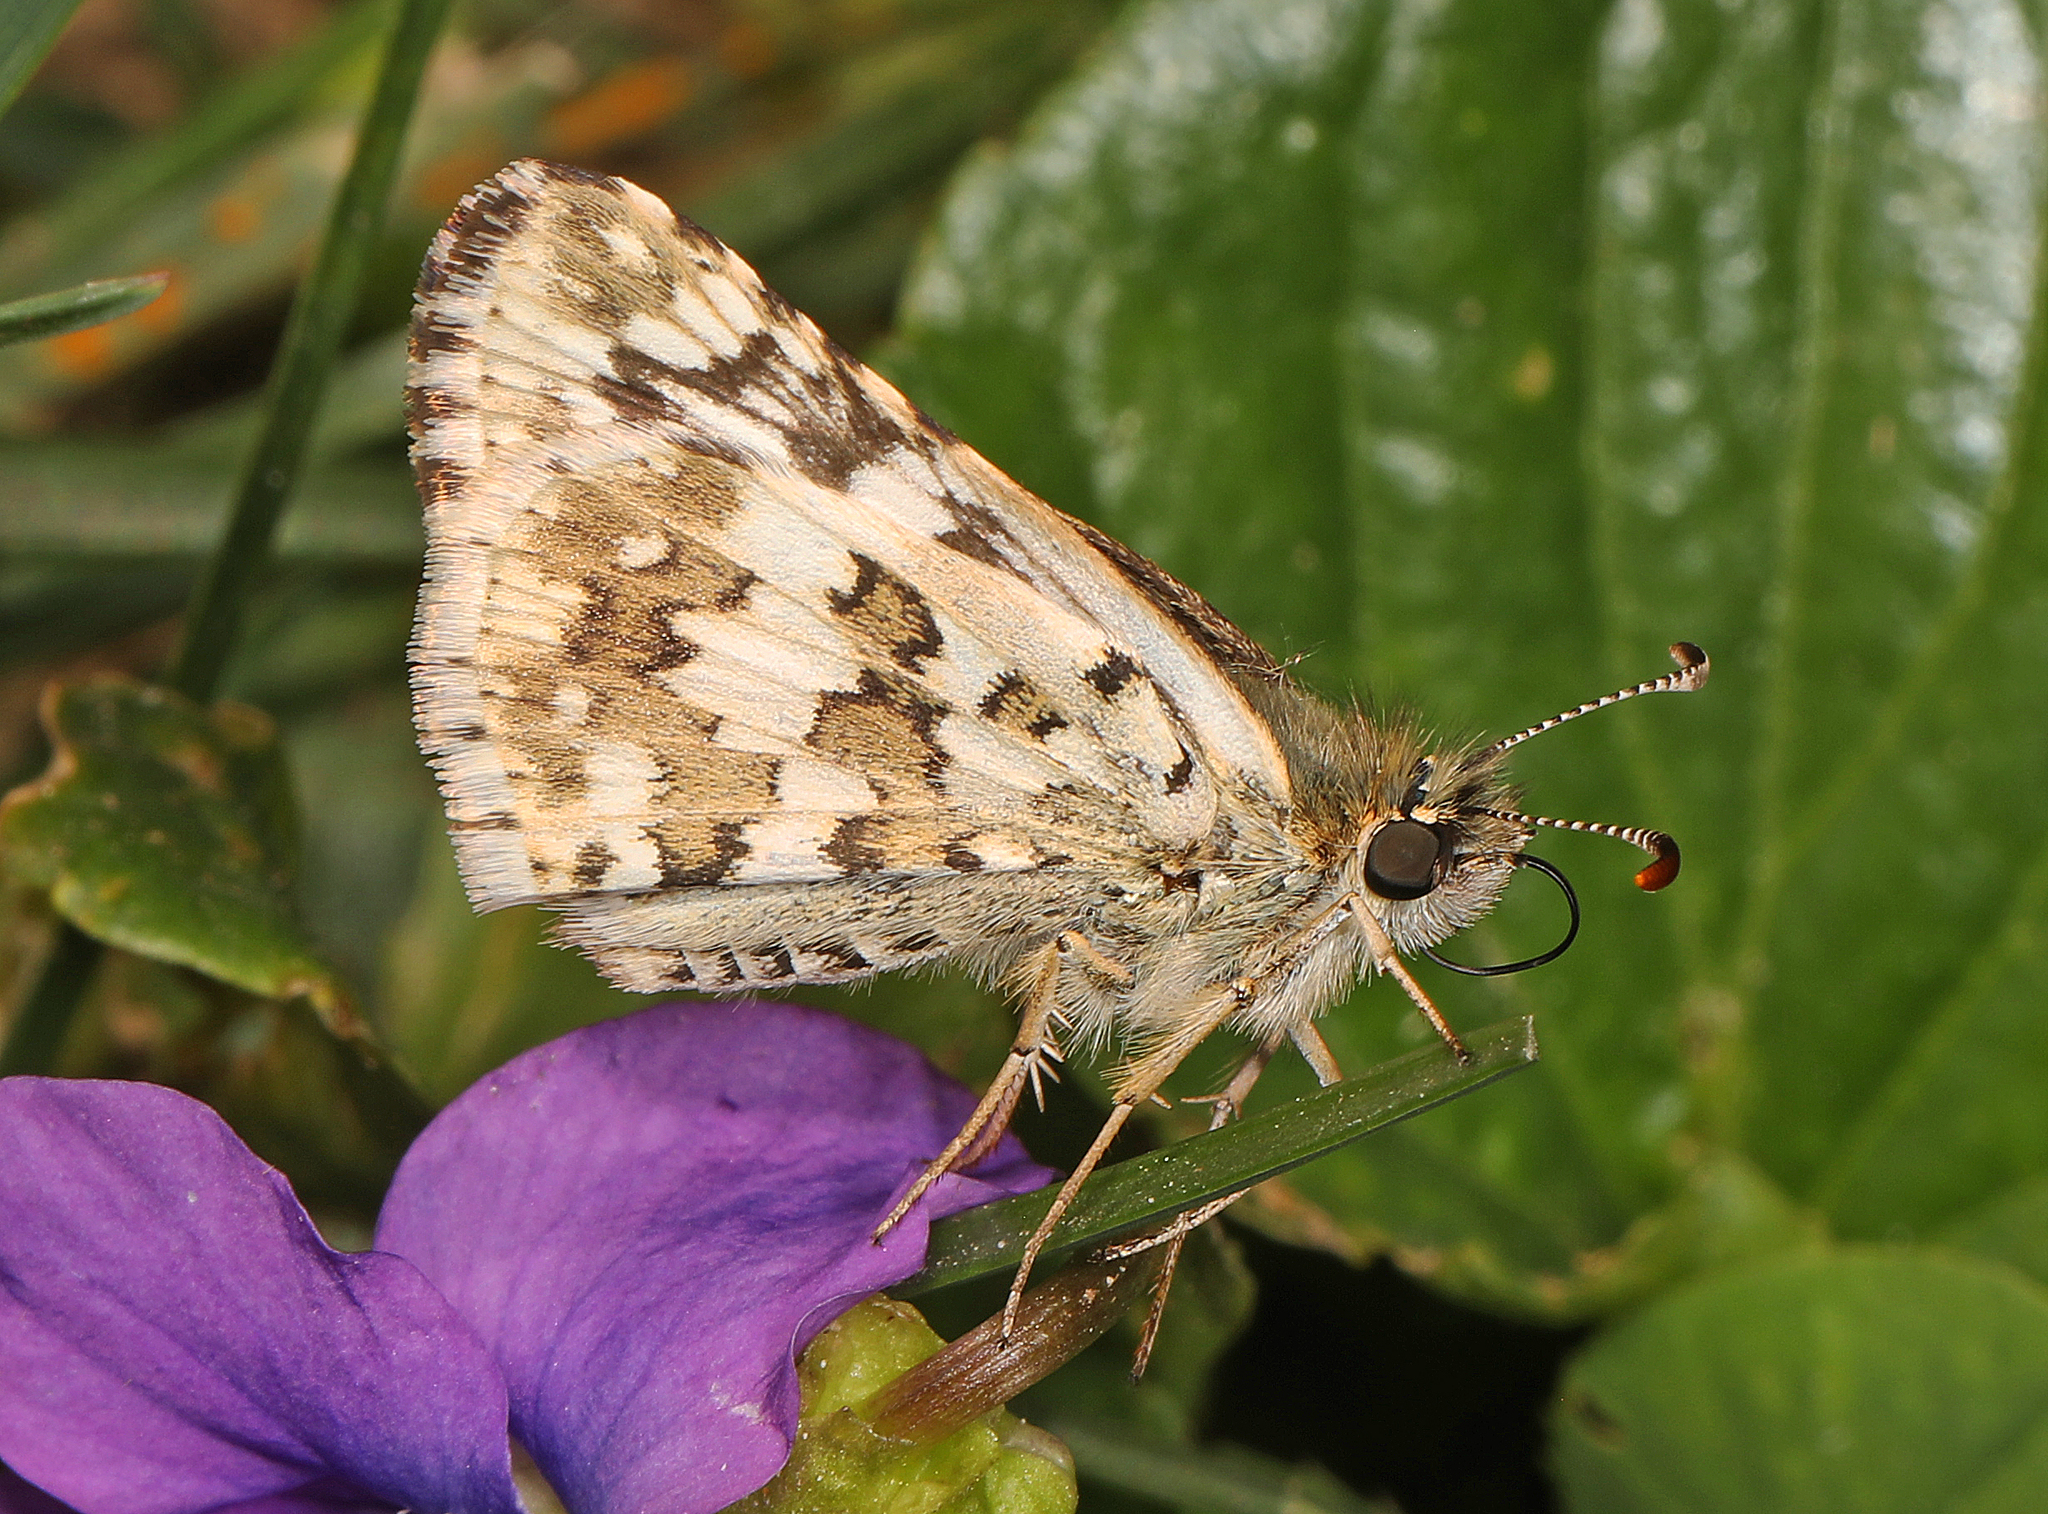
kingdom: Animalia
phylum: Arthropoda
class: Insecta
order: Lepidoptera
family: Hesperiidae
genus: Burnsius
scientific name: Burnsius communis
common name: Common checkered-skipper
